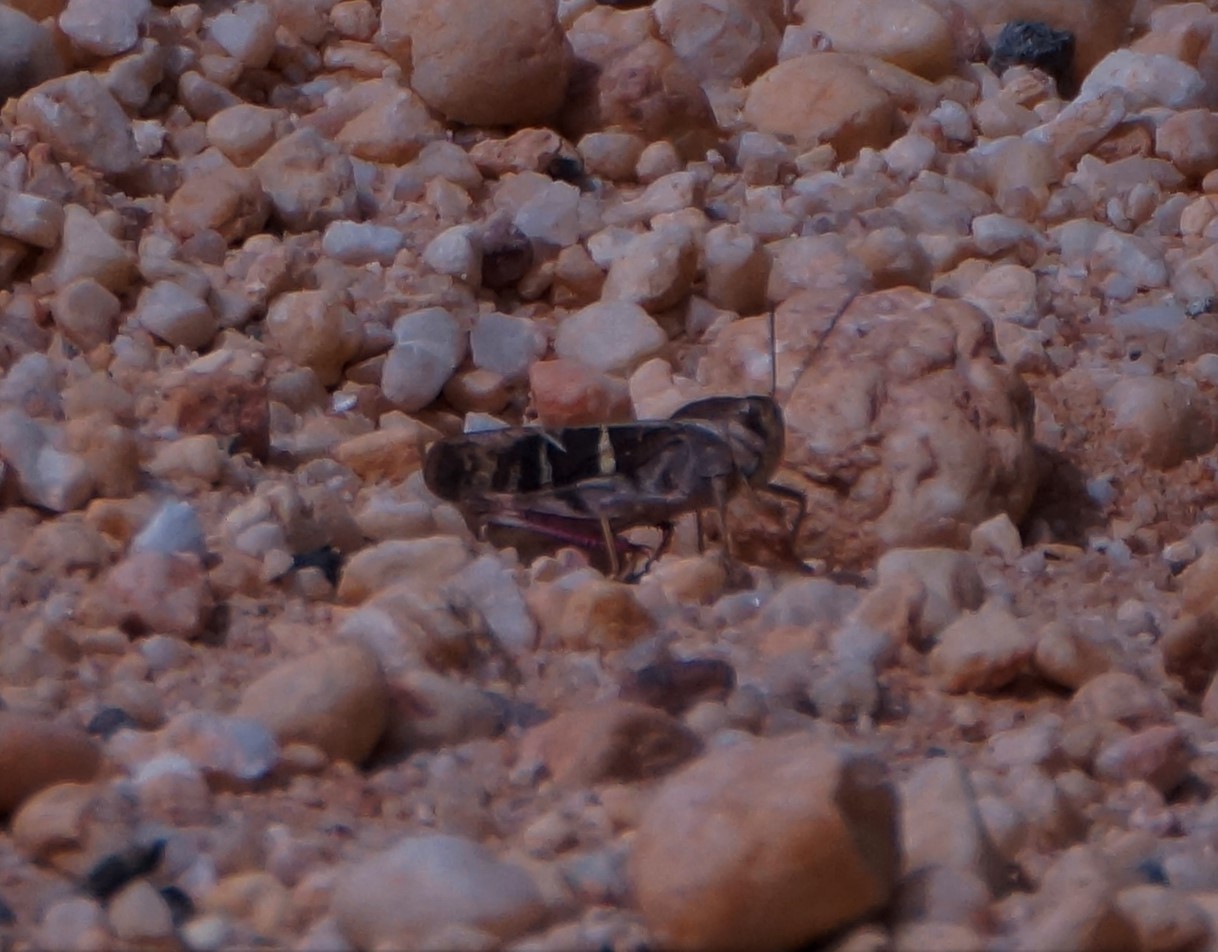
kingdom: Animalia
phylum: Arthropoda
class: Insecta
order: Orthoptera
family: Acrididae
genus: Gastrimargus
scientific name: Gastrimargus musicus
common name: Yellow-winged locust
